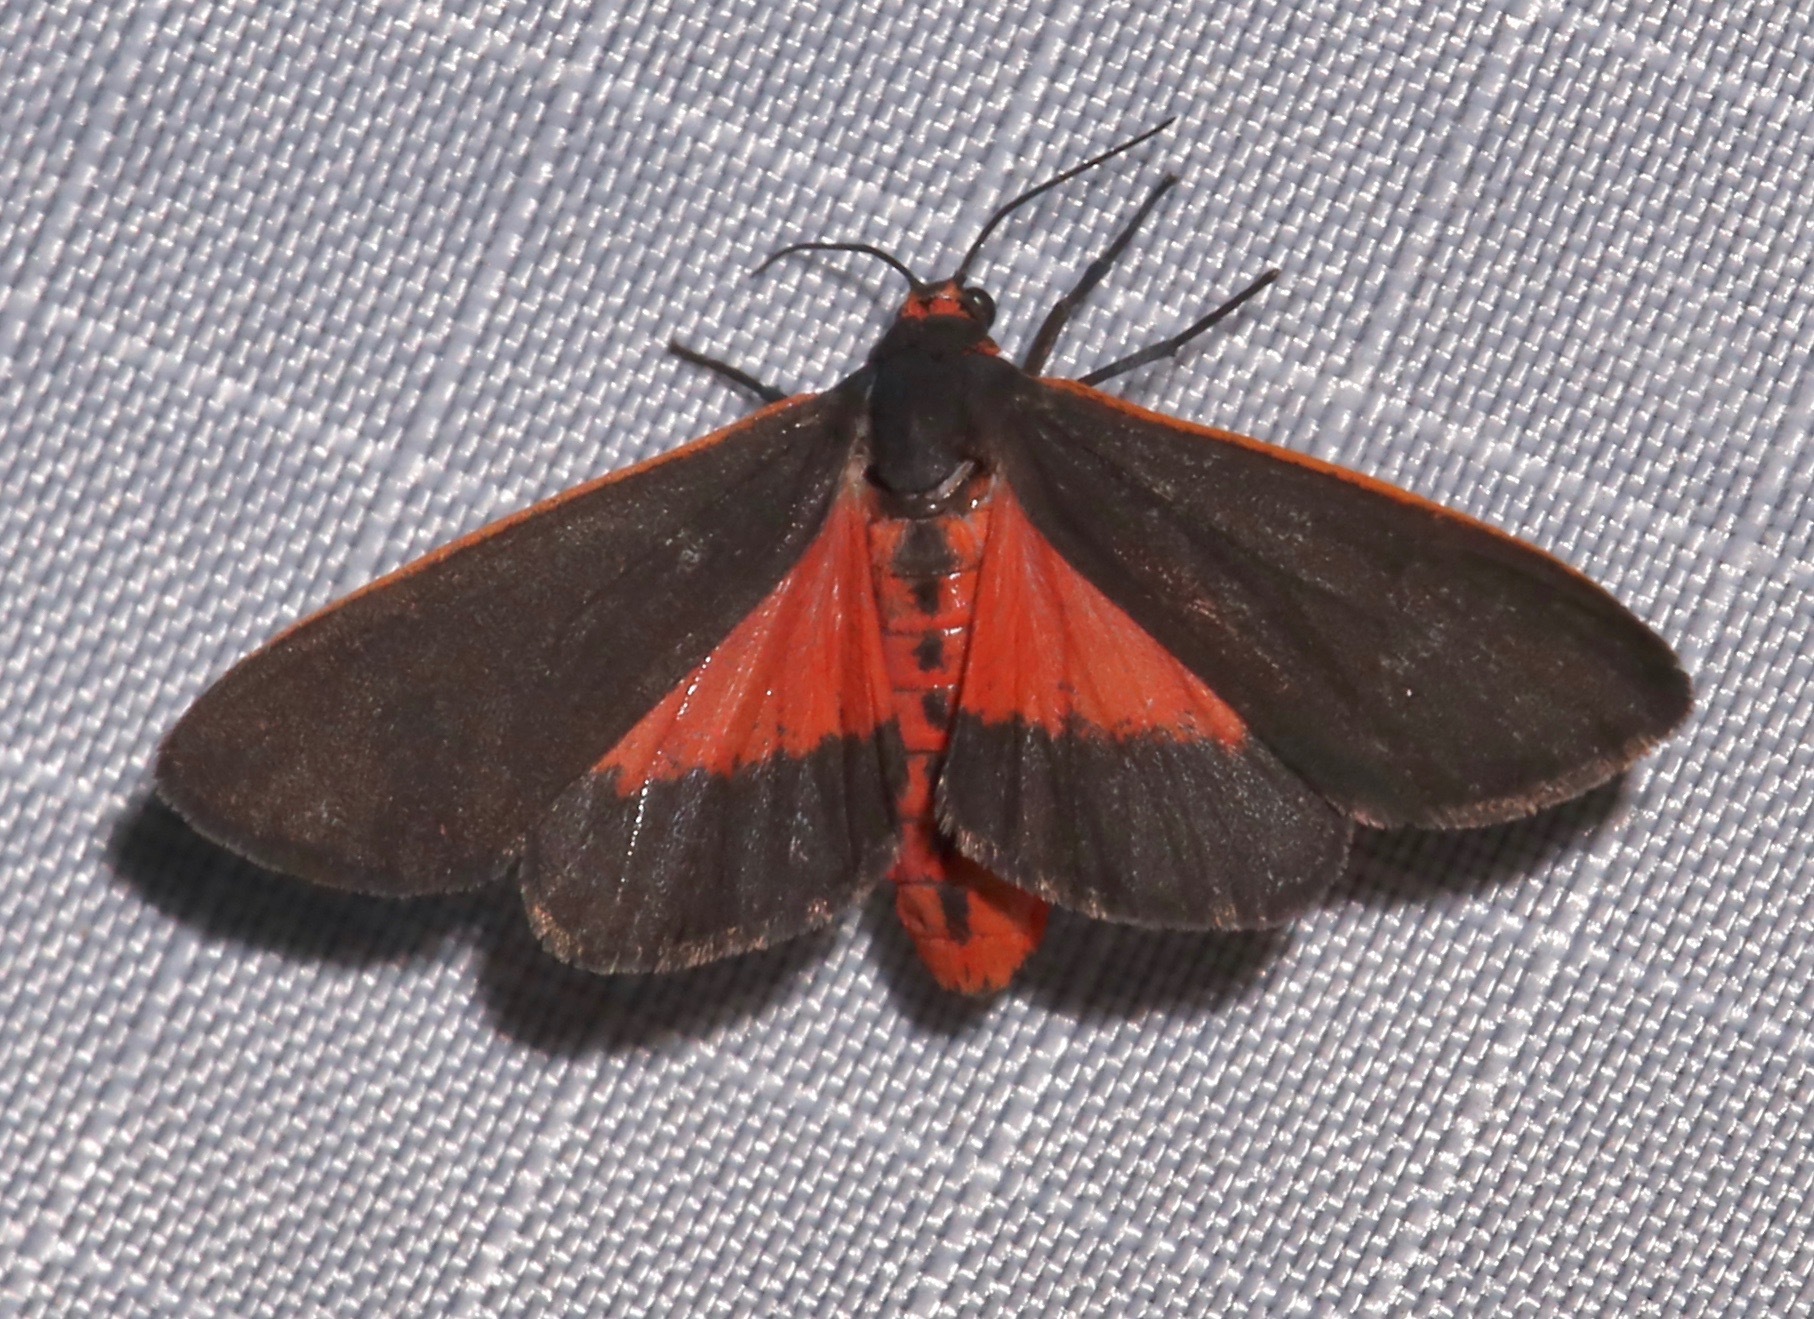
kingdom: Animalia
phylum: Arthropoda
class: Insecta
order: Lepidoptera
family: Erebidae
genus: Virbia
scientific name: Virbia laeta
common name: Joyful holomelina moth
